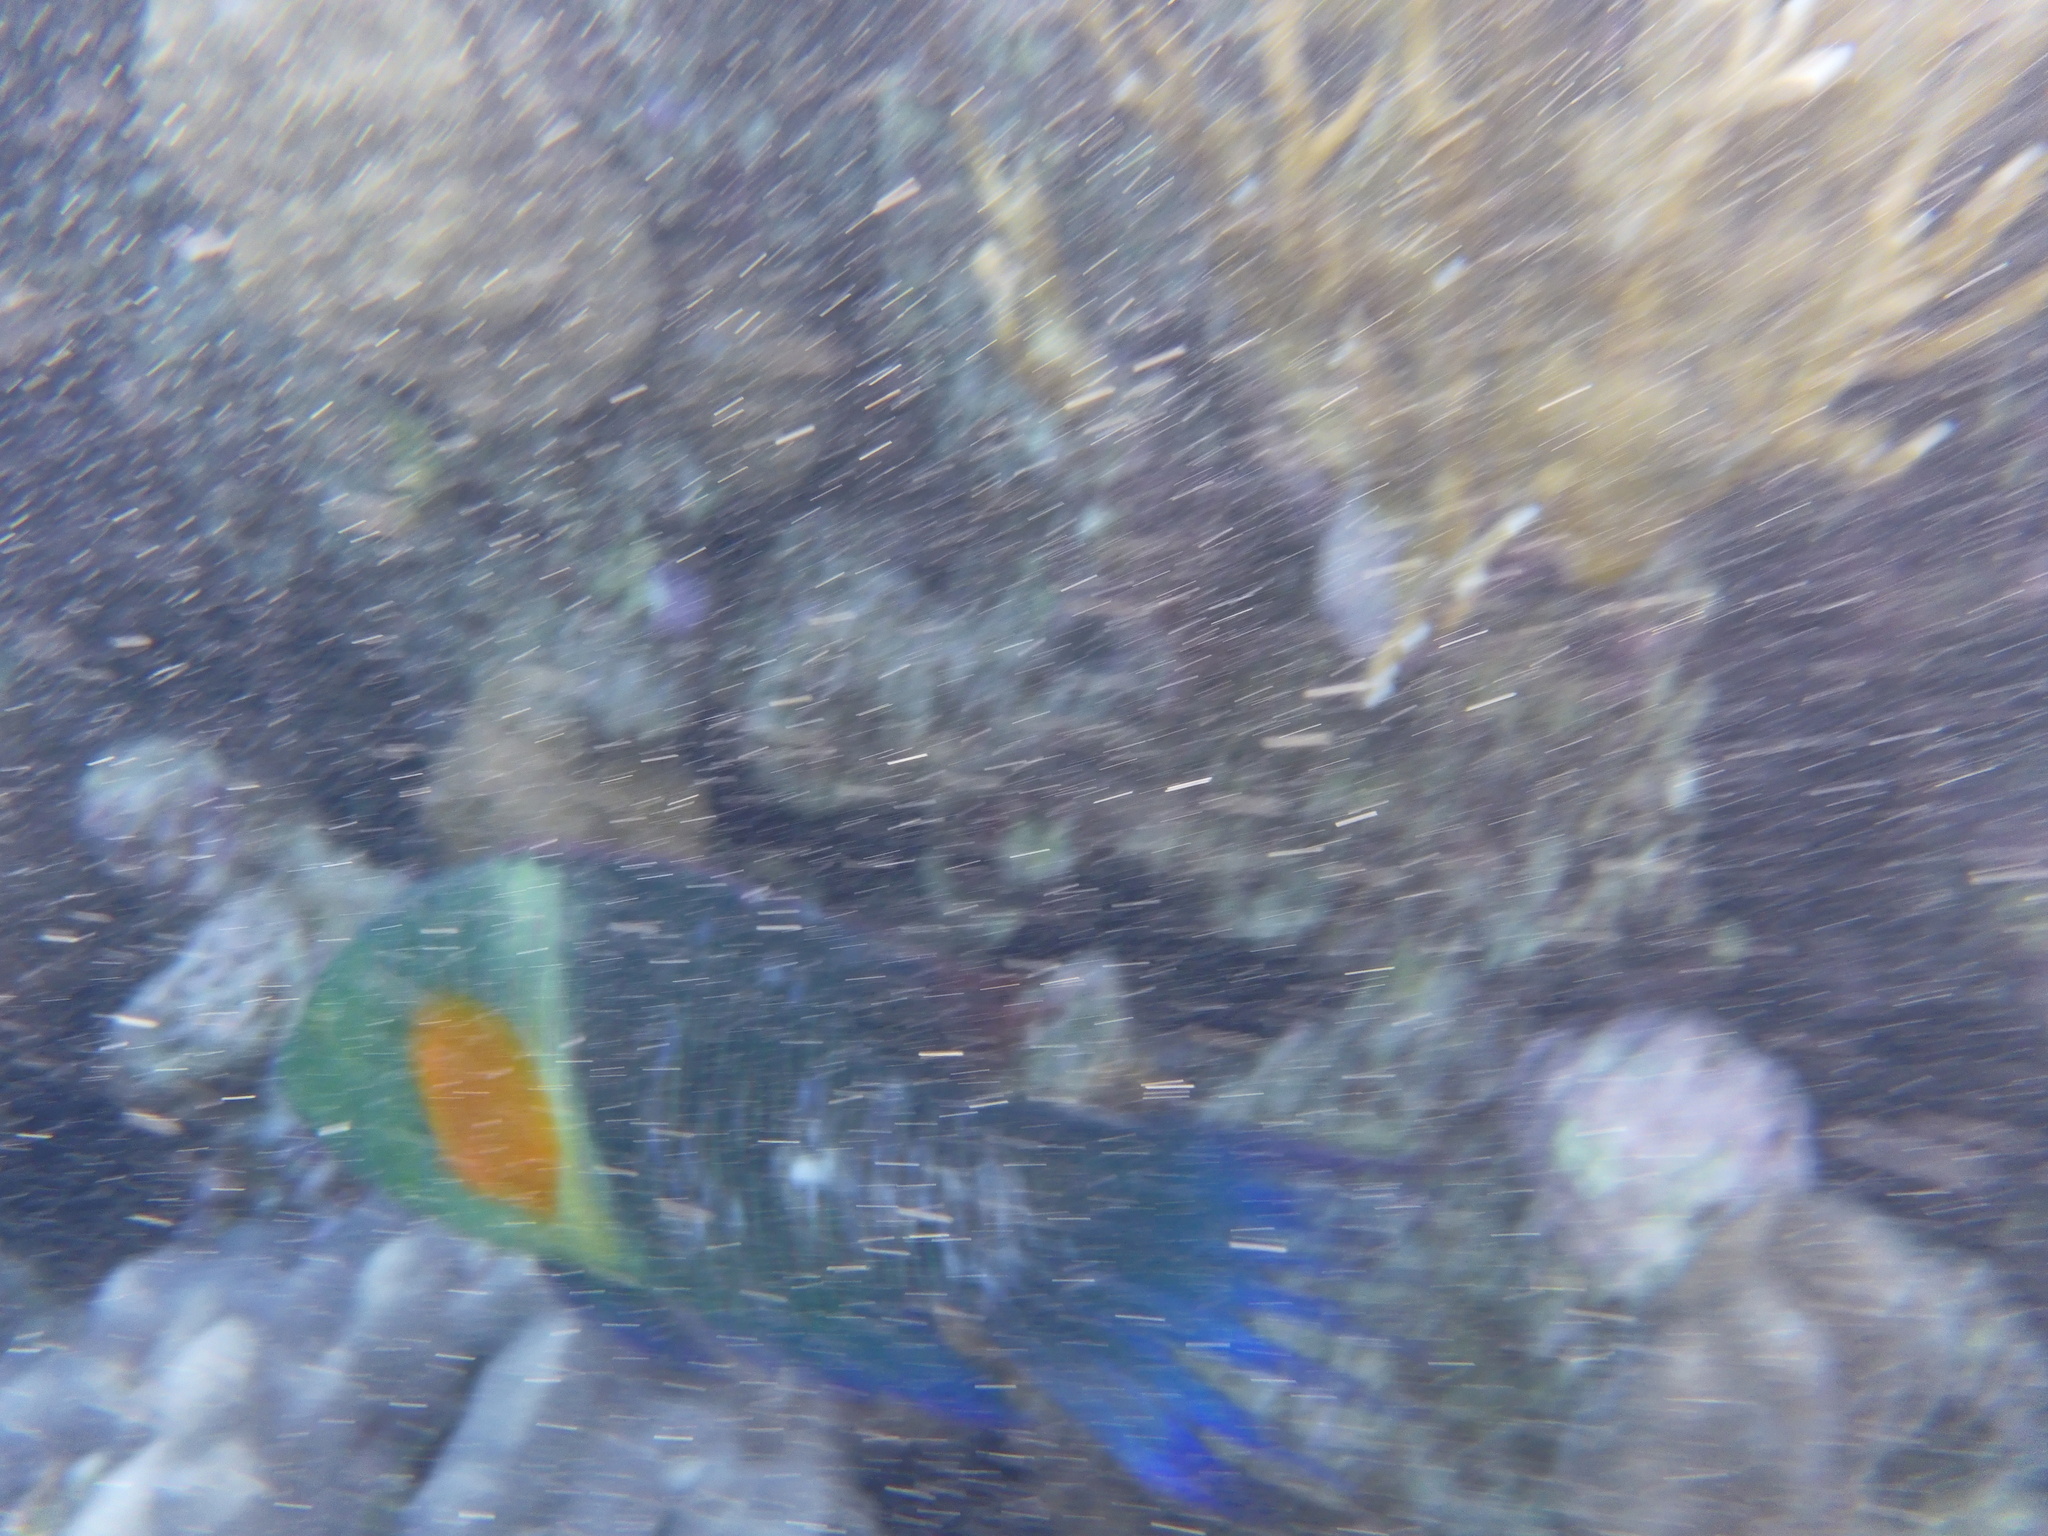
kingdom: Animalia
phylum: Chordata
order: Perciformes
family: Labridae
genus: Cheilinus
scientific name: Cheilinus lunulatus
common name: Broomtail wrasse
